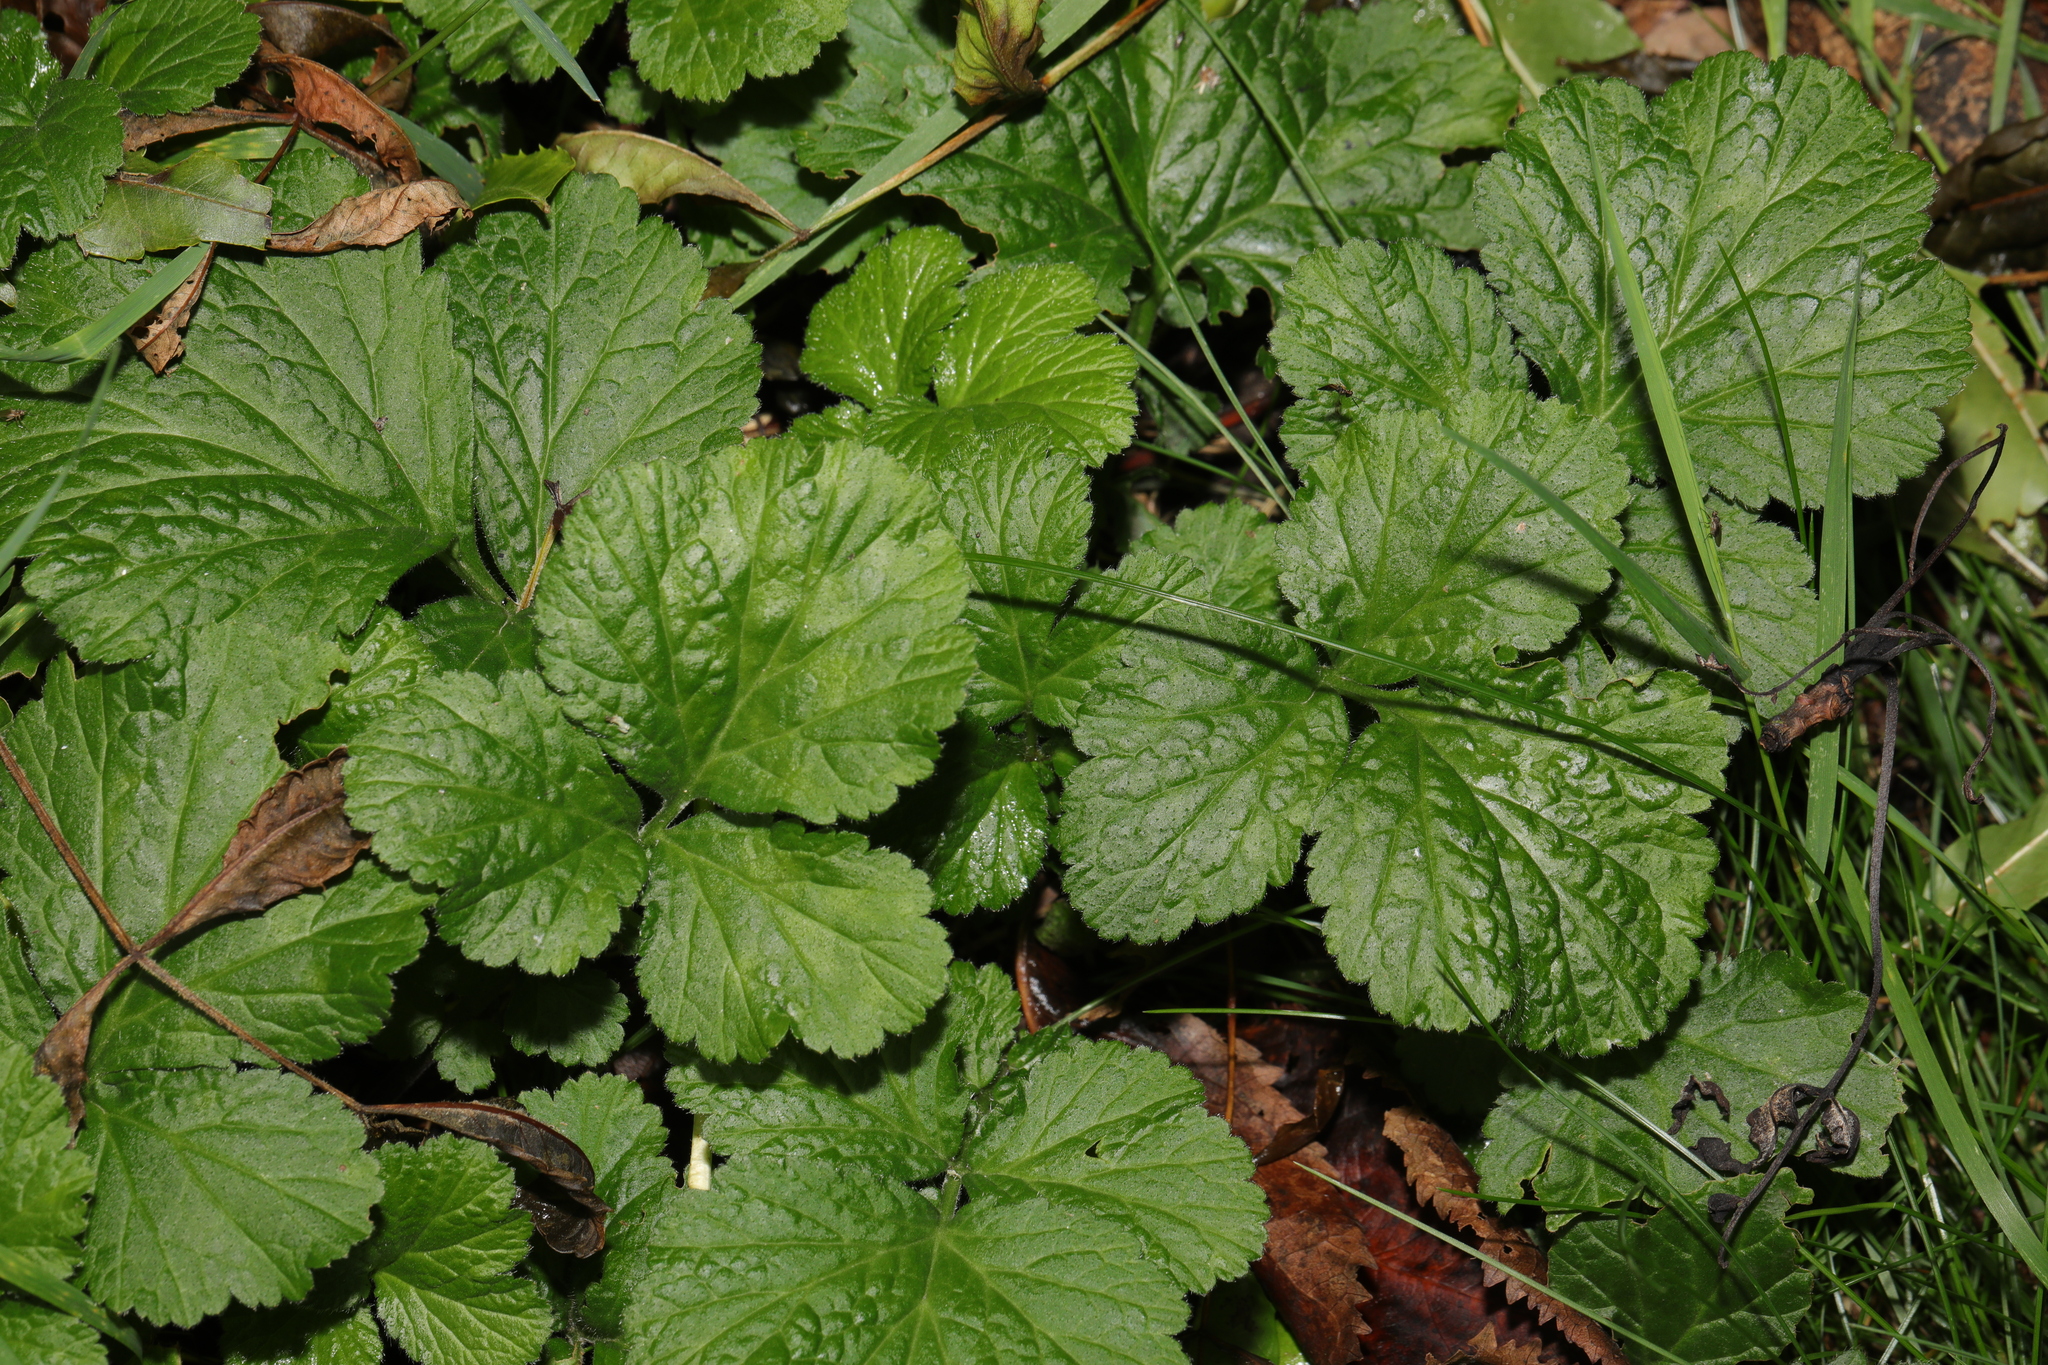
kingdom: Plantae
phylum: Tracheophyta
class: Magnoliopsida
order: Rosales
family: Rosaceae
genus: Geum
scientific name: Geum urbanum
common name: Wood avens
